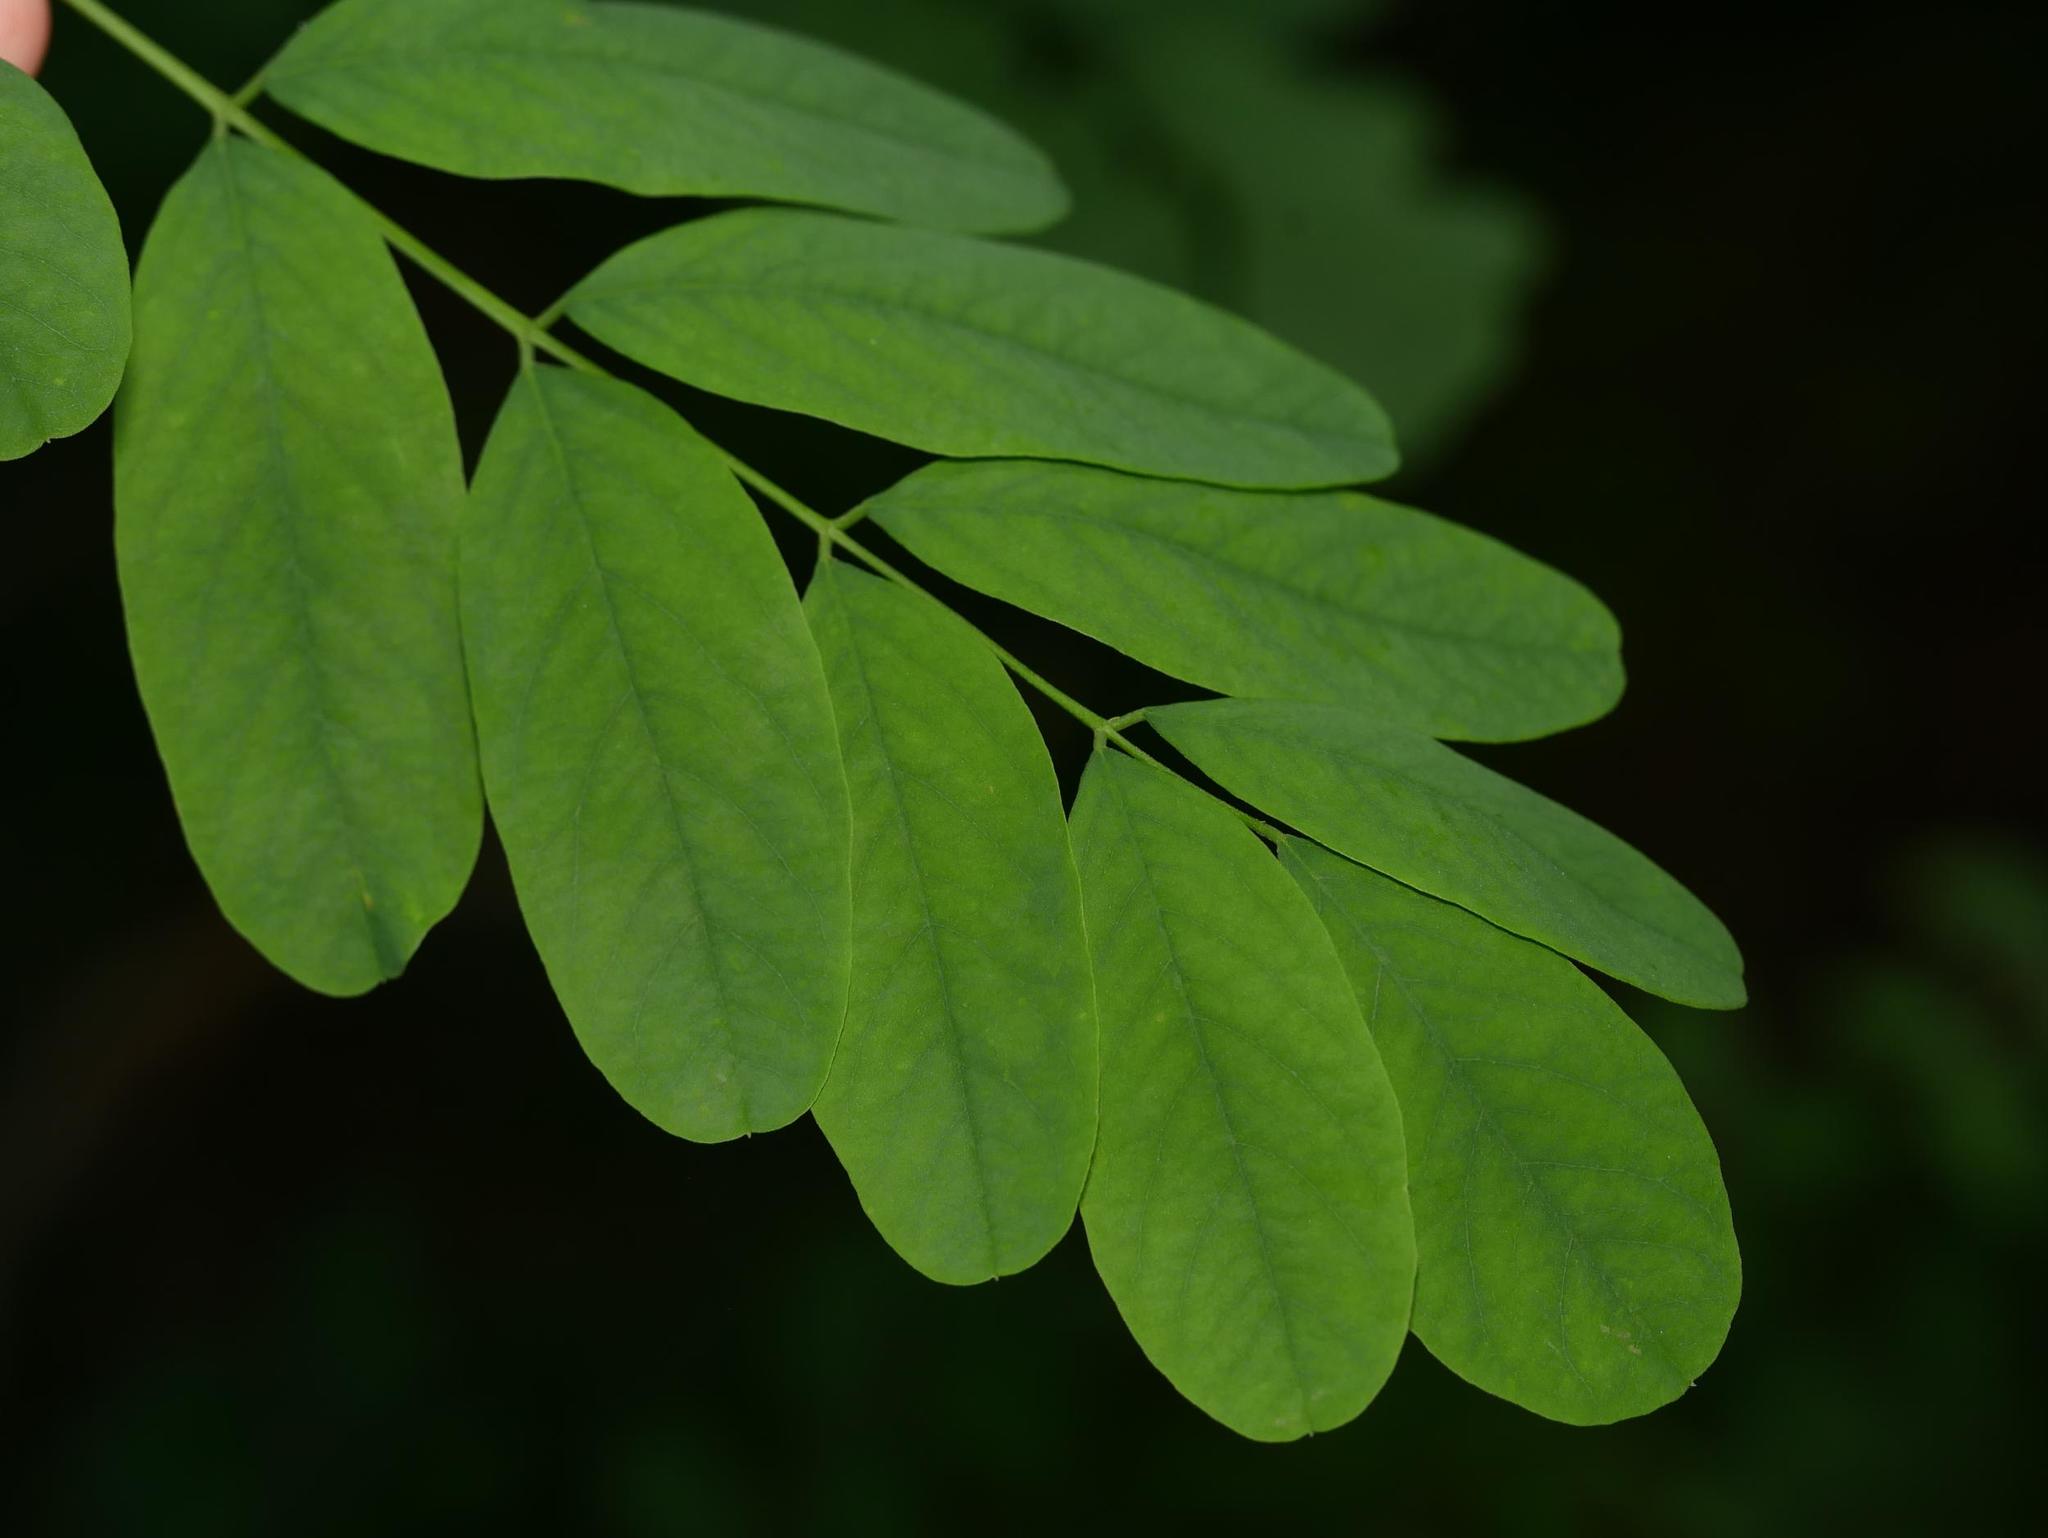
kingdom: Plantae
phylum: Tracheophyta
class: Magnoliopsida
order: Fabales
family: Fabaceae
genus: Robinia
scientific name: Robinia pseudoacacia
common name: Black locust
